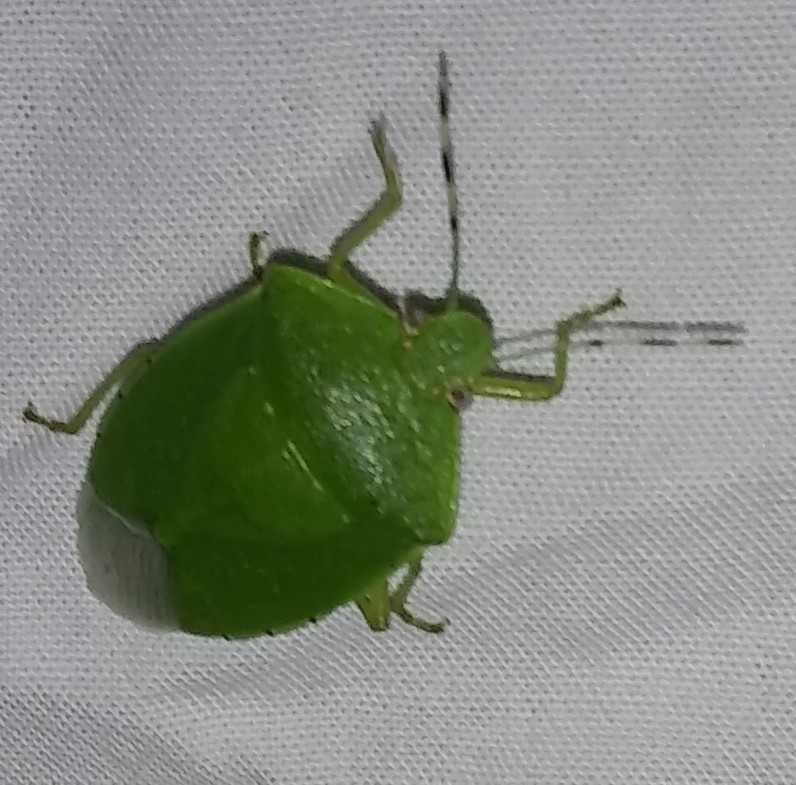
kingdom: Animalia
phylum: Arthropoda
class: Insecta
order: Hemiptera
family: Pentatomidae
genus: Chinavia
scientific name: Chinavia hilaris
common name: Green stink bug
